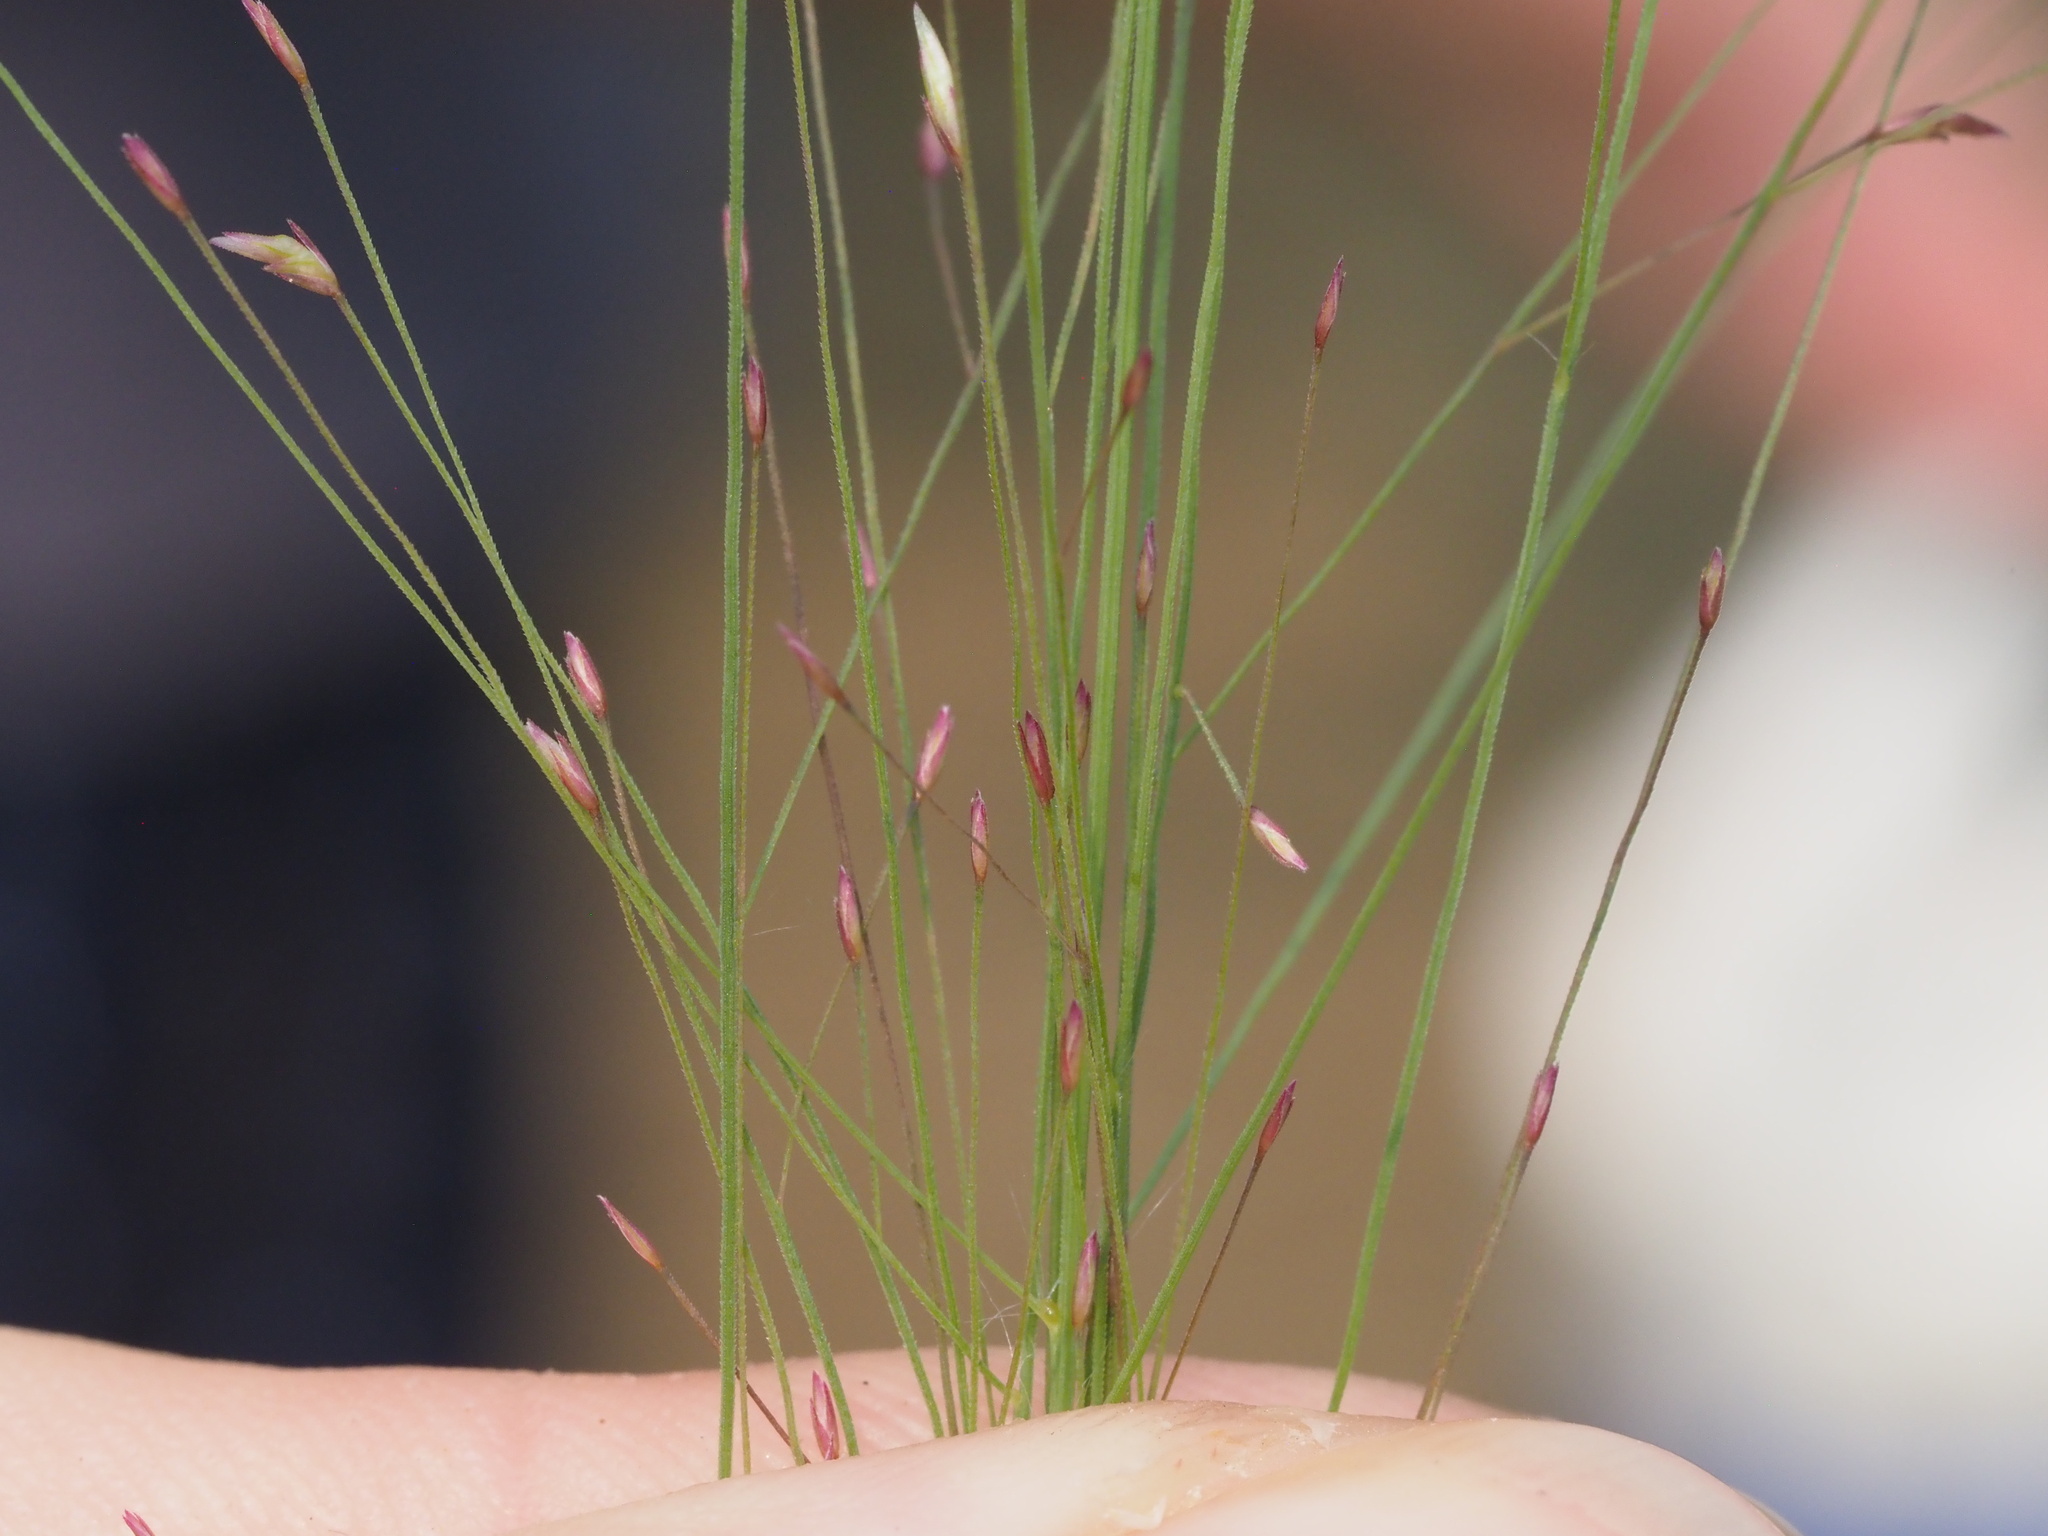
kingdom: Plantae
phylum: Tracheophyta
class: Liliopsida
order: Poales
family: Poaceae
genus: Eragrostis
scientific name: Eragrostis spectabilis
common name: Petticoat-climber
